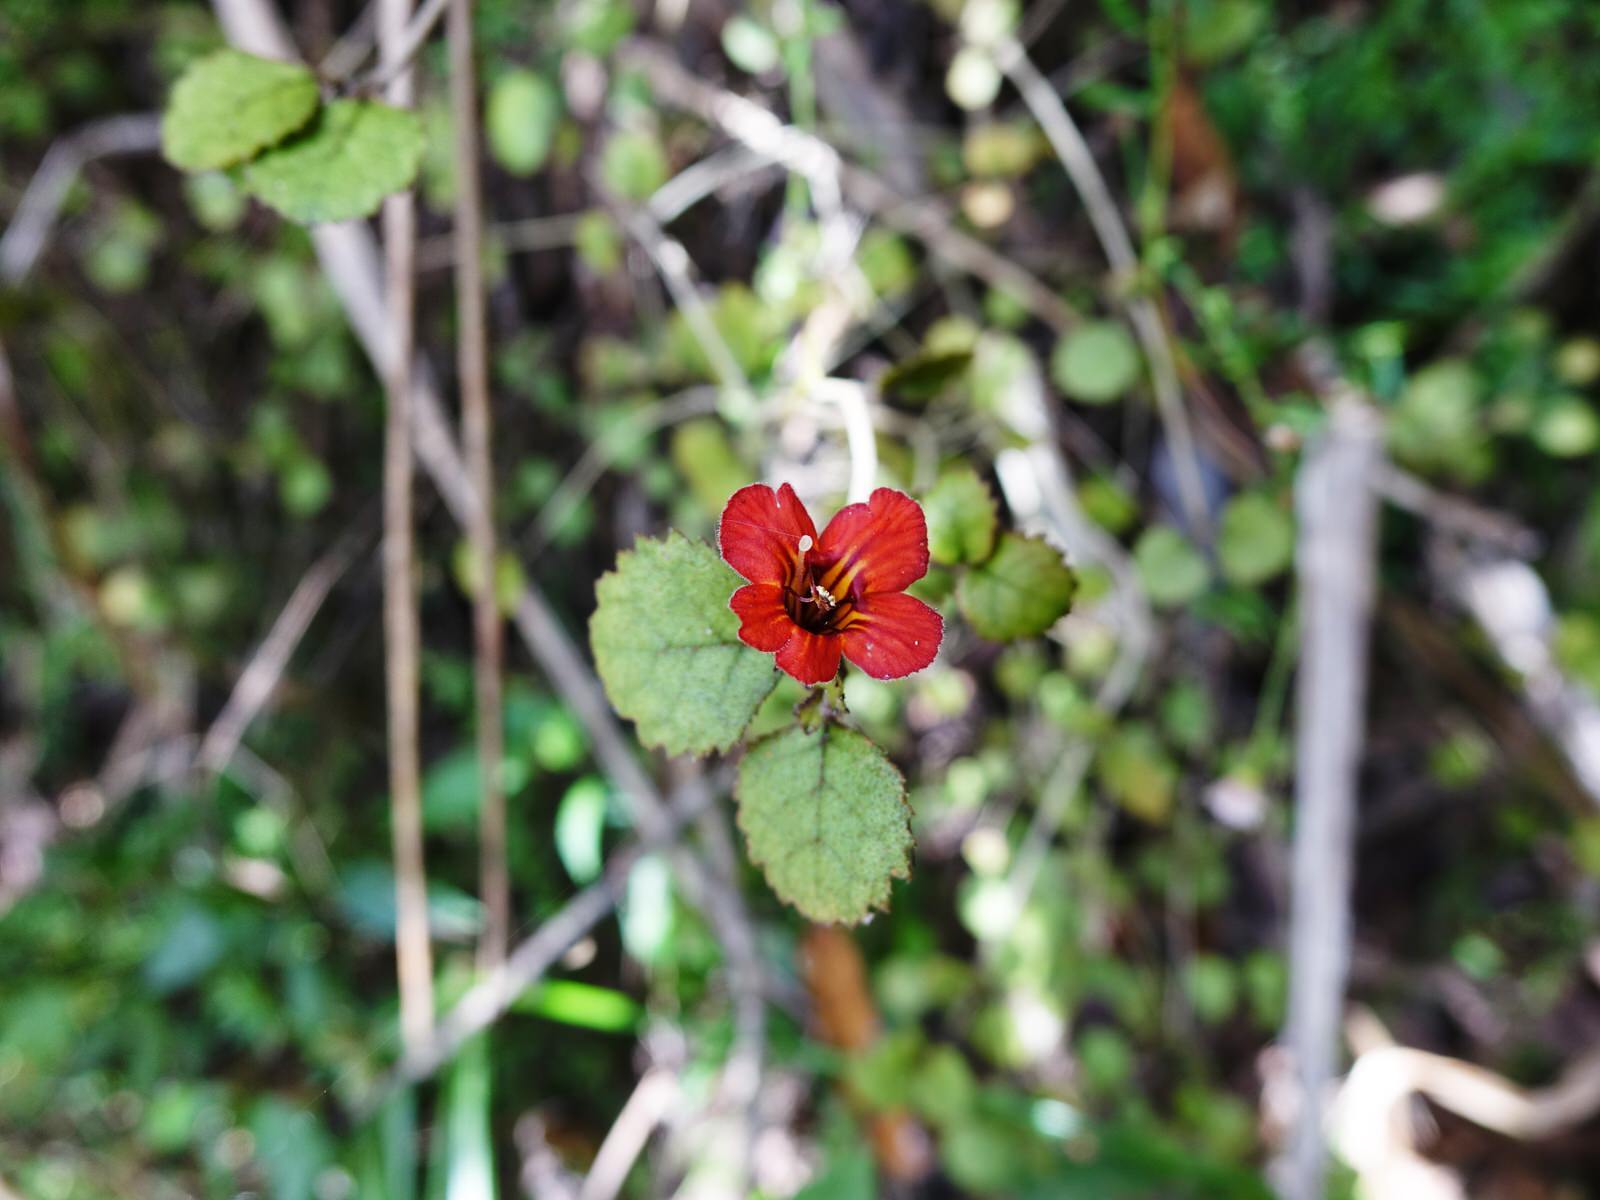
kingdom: Plantae
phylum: Tracheophyta
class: Magnoliopsida
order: Lamiales
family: Gesneriaceae
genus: Rhabdothamnus
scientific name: Rhabdothamnus solandri
